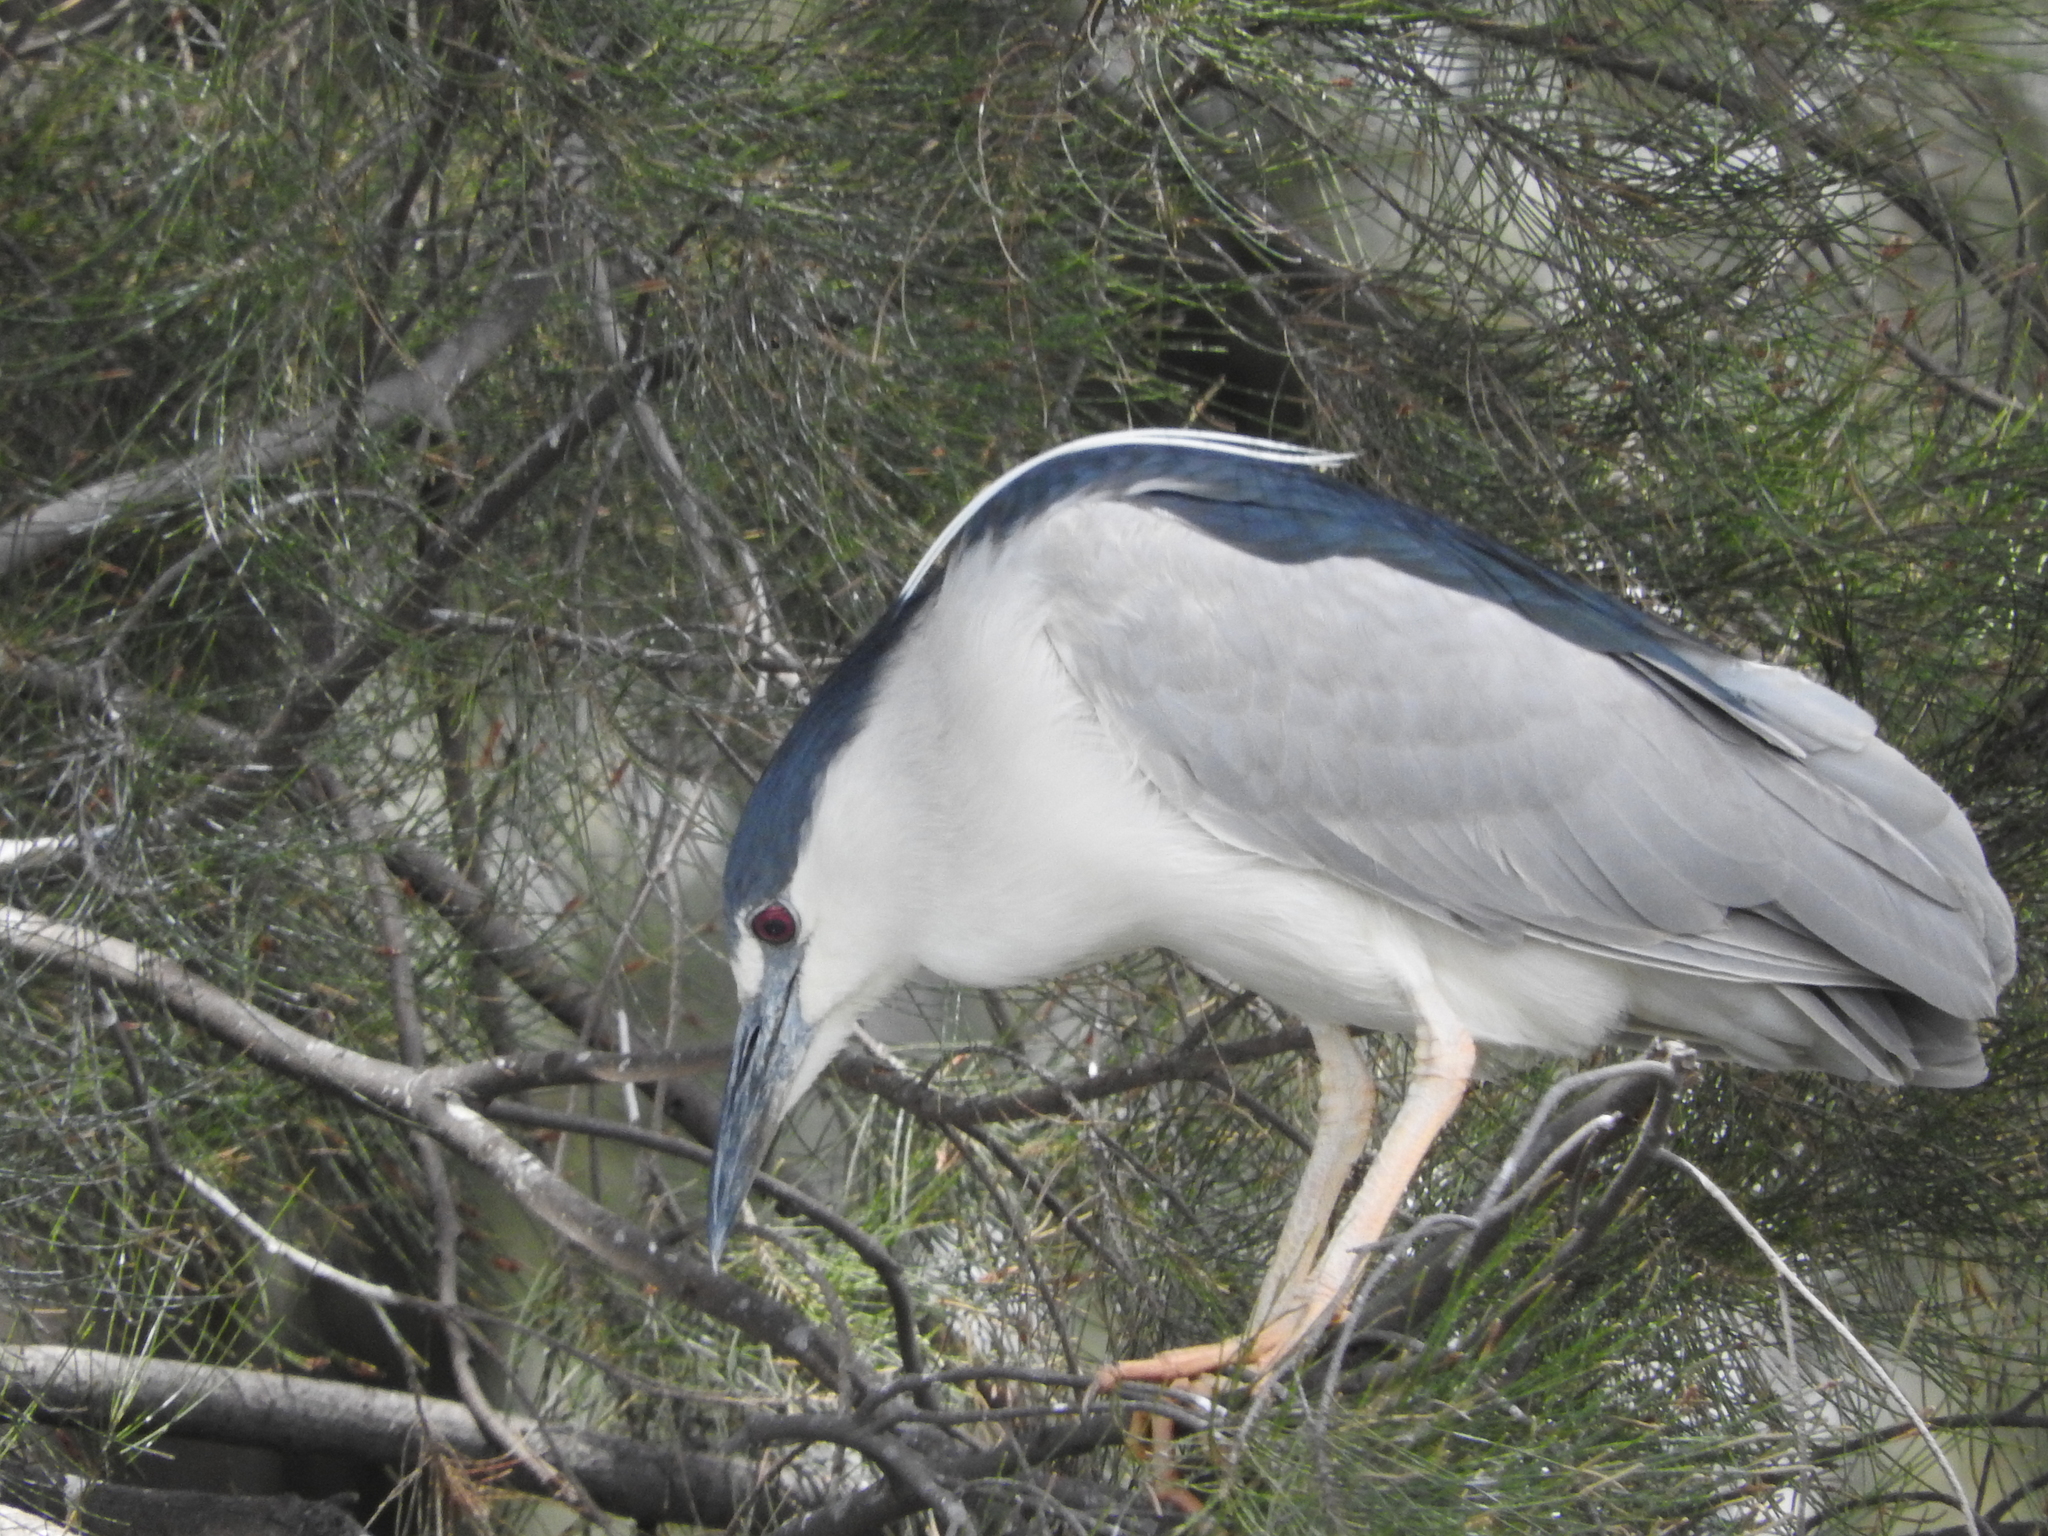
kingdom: Animalia
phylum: Chordata
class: Aves
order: Pelecaniformes
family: Ardeidae
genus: Nycticorax
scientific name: Nycticorax nycticorax
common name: Black-crowned night heron
